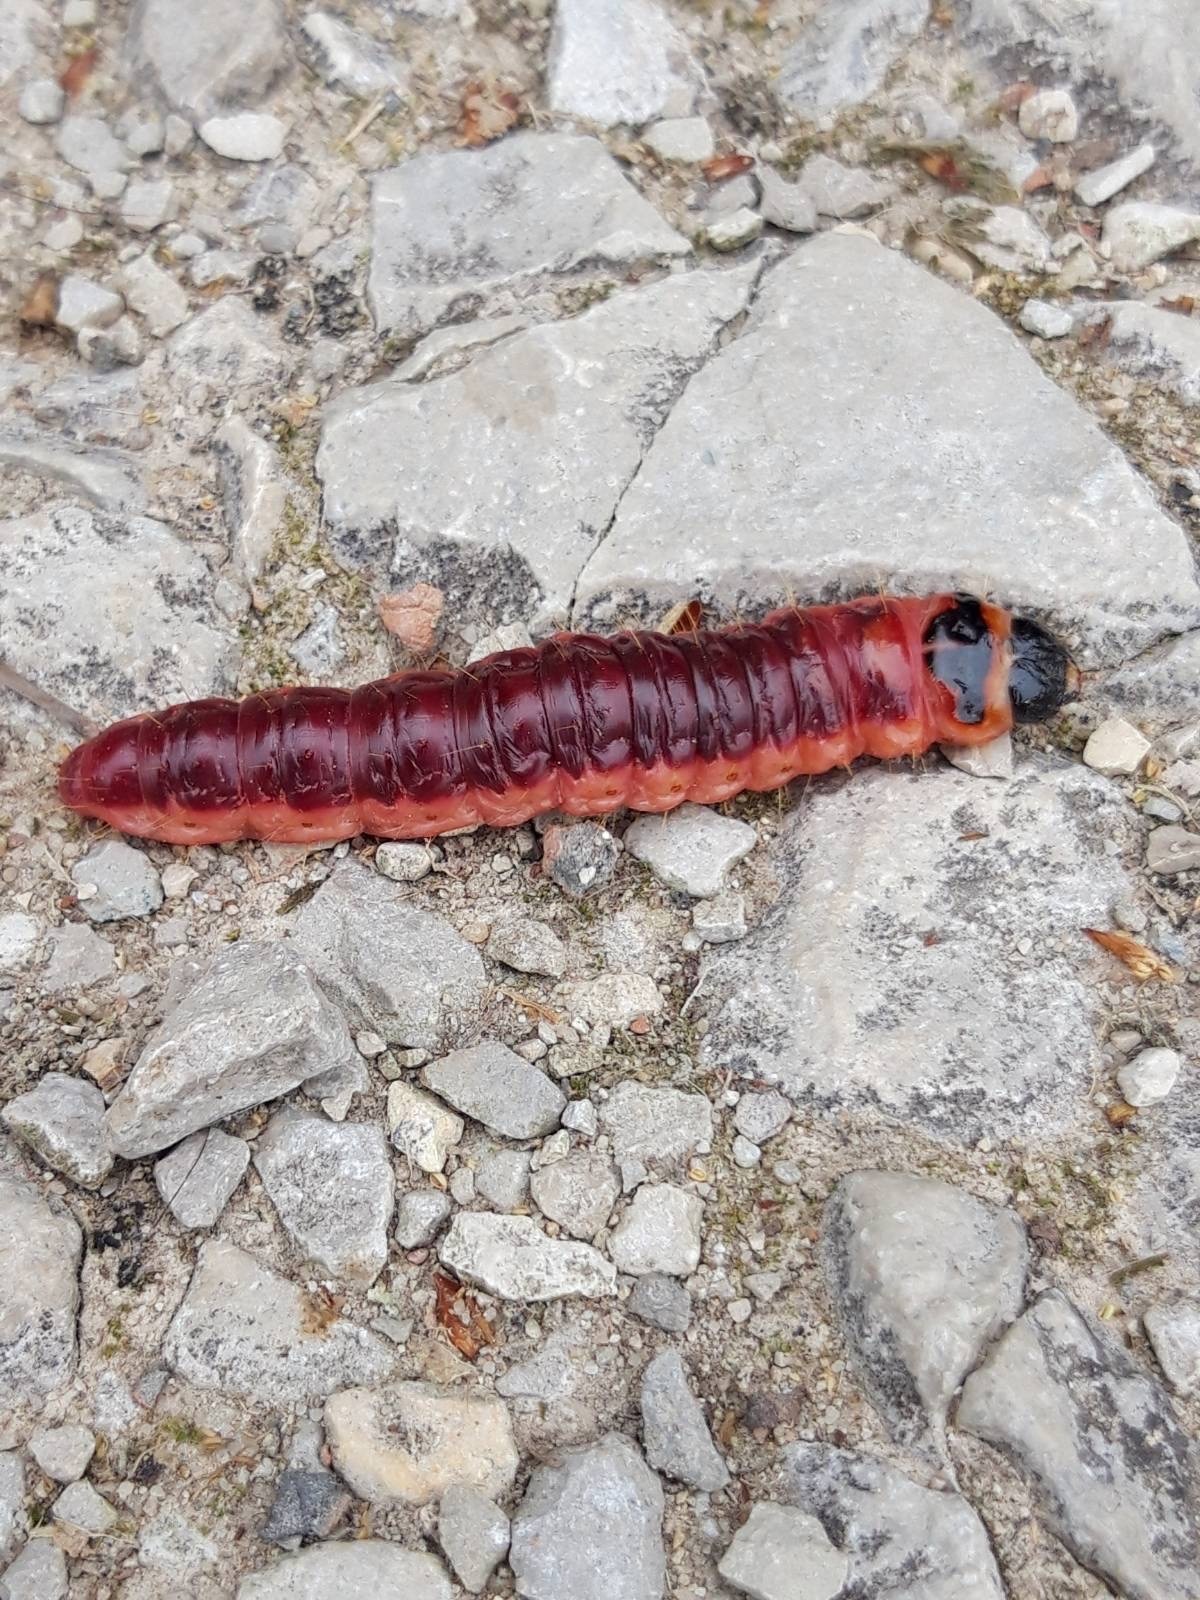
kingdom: Animalia
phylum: Arthropoda
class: Insecta
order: Lepidoptera
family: Cossidae
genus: Cossus
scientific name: Cossus cossus
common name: Goat moth
